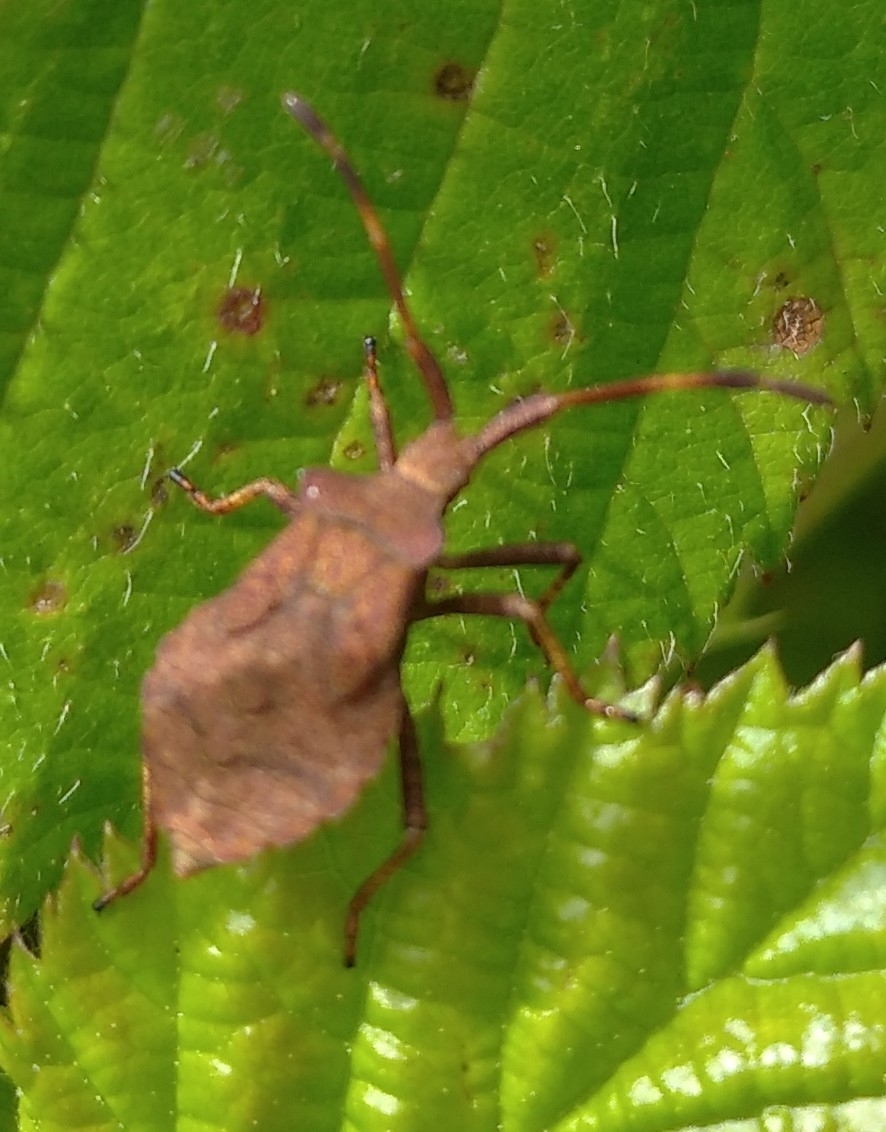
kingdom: Animalia
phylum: Arthropoda
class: Insecta
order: Hemiptera
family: Coreidae
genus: Coreus
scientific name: Coreus marginatus
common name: Dock bug
